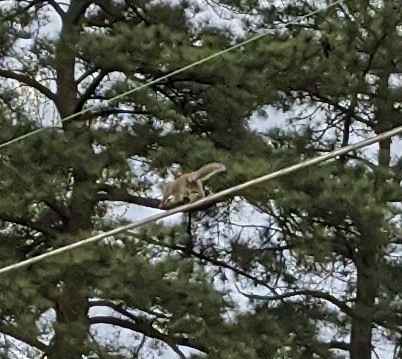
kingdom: Animalia
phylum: Chordata
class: Mammalia
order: Rodentia
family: Sciuridae
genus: Sciurus
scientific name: Sciurus carolinensis
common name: Eastern gray squirrel
